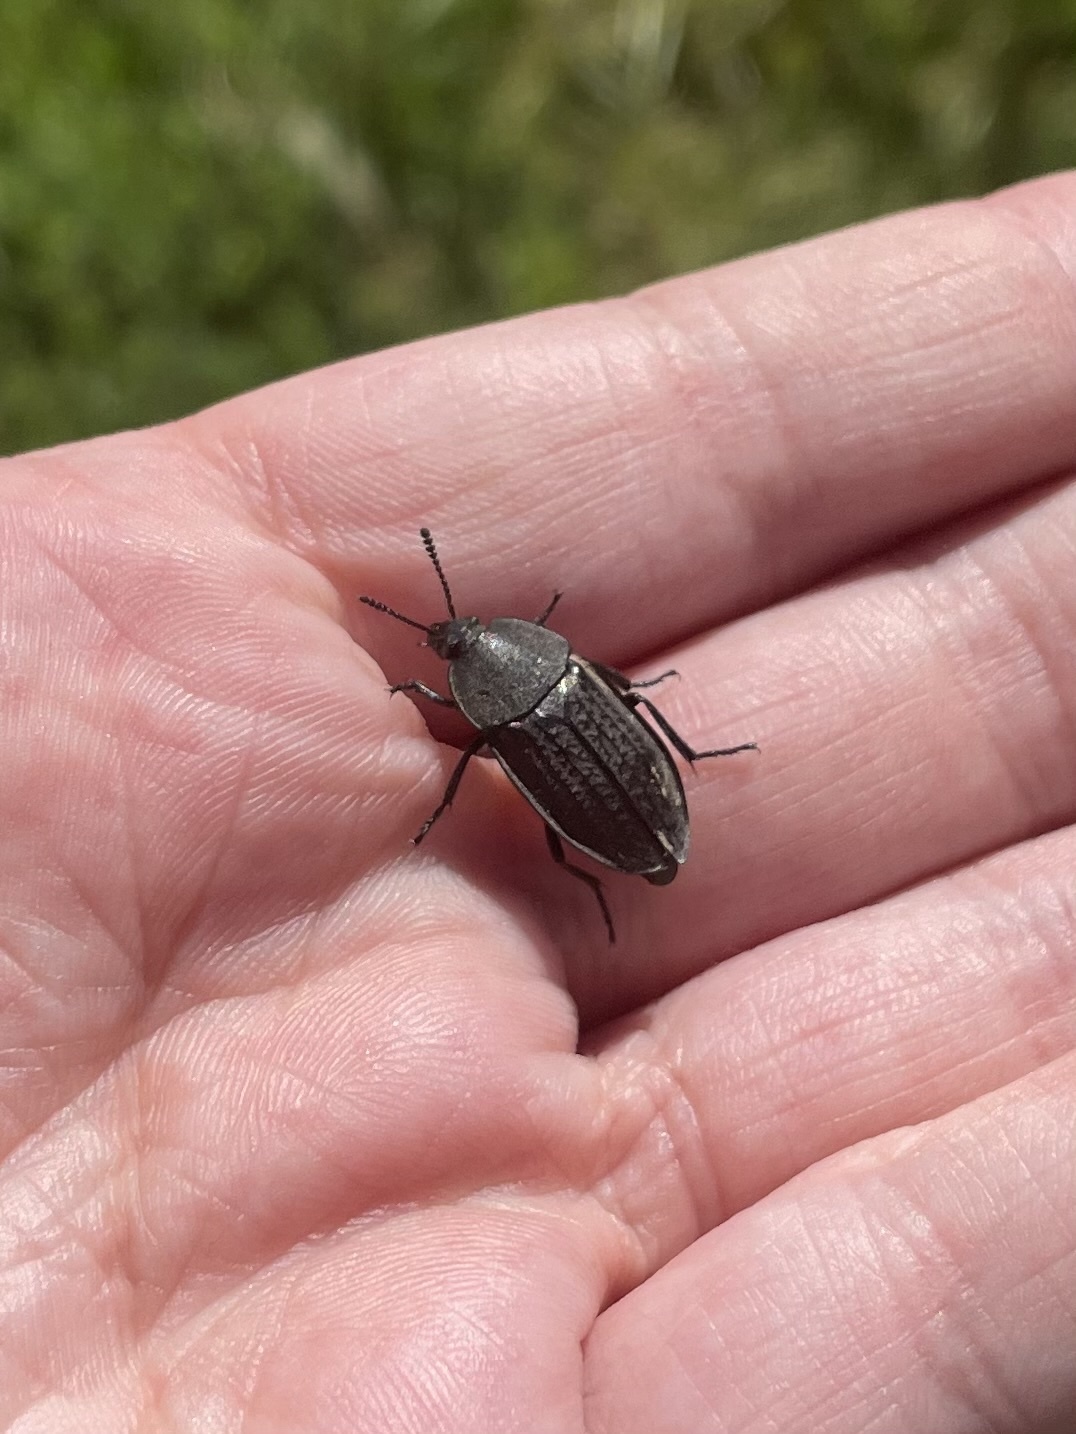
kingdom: Animalia
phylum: Arthropoda
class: Insecta
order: Coleoptera
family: Staphylinidae
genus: Heterosilpha
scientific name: Heterosilpha ramosa
